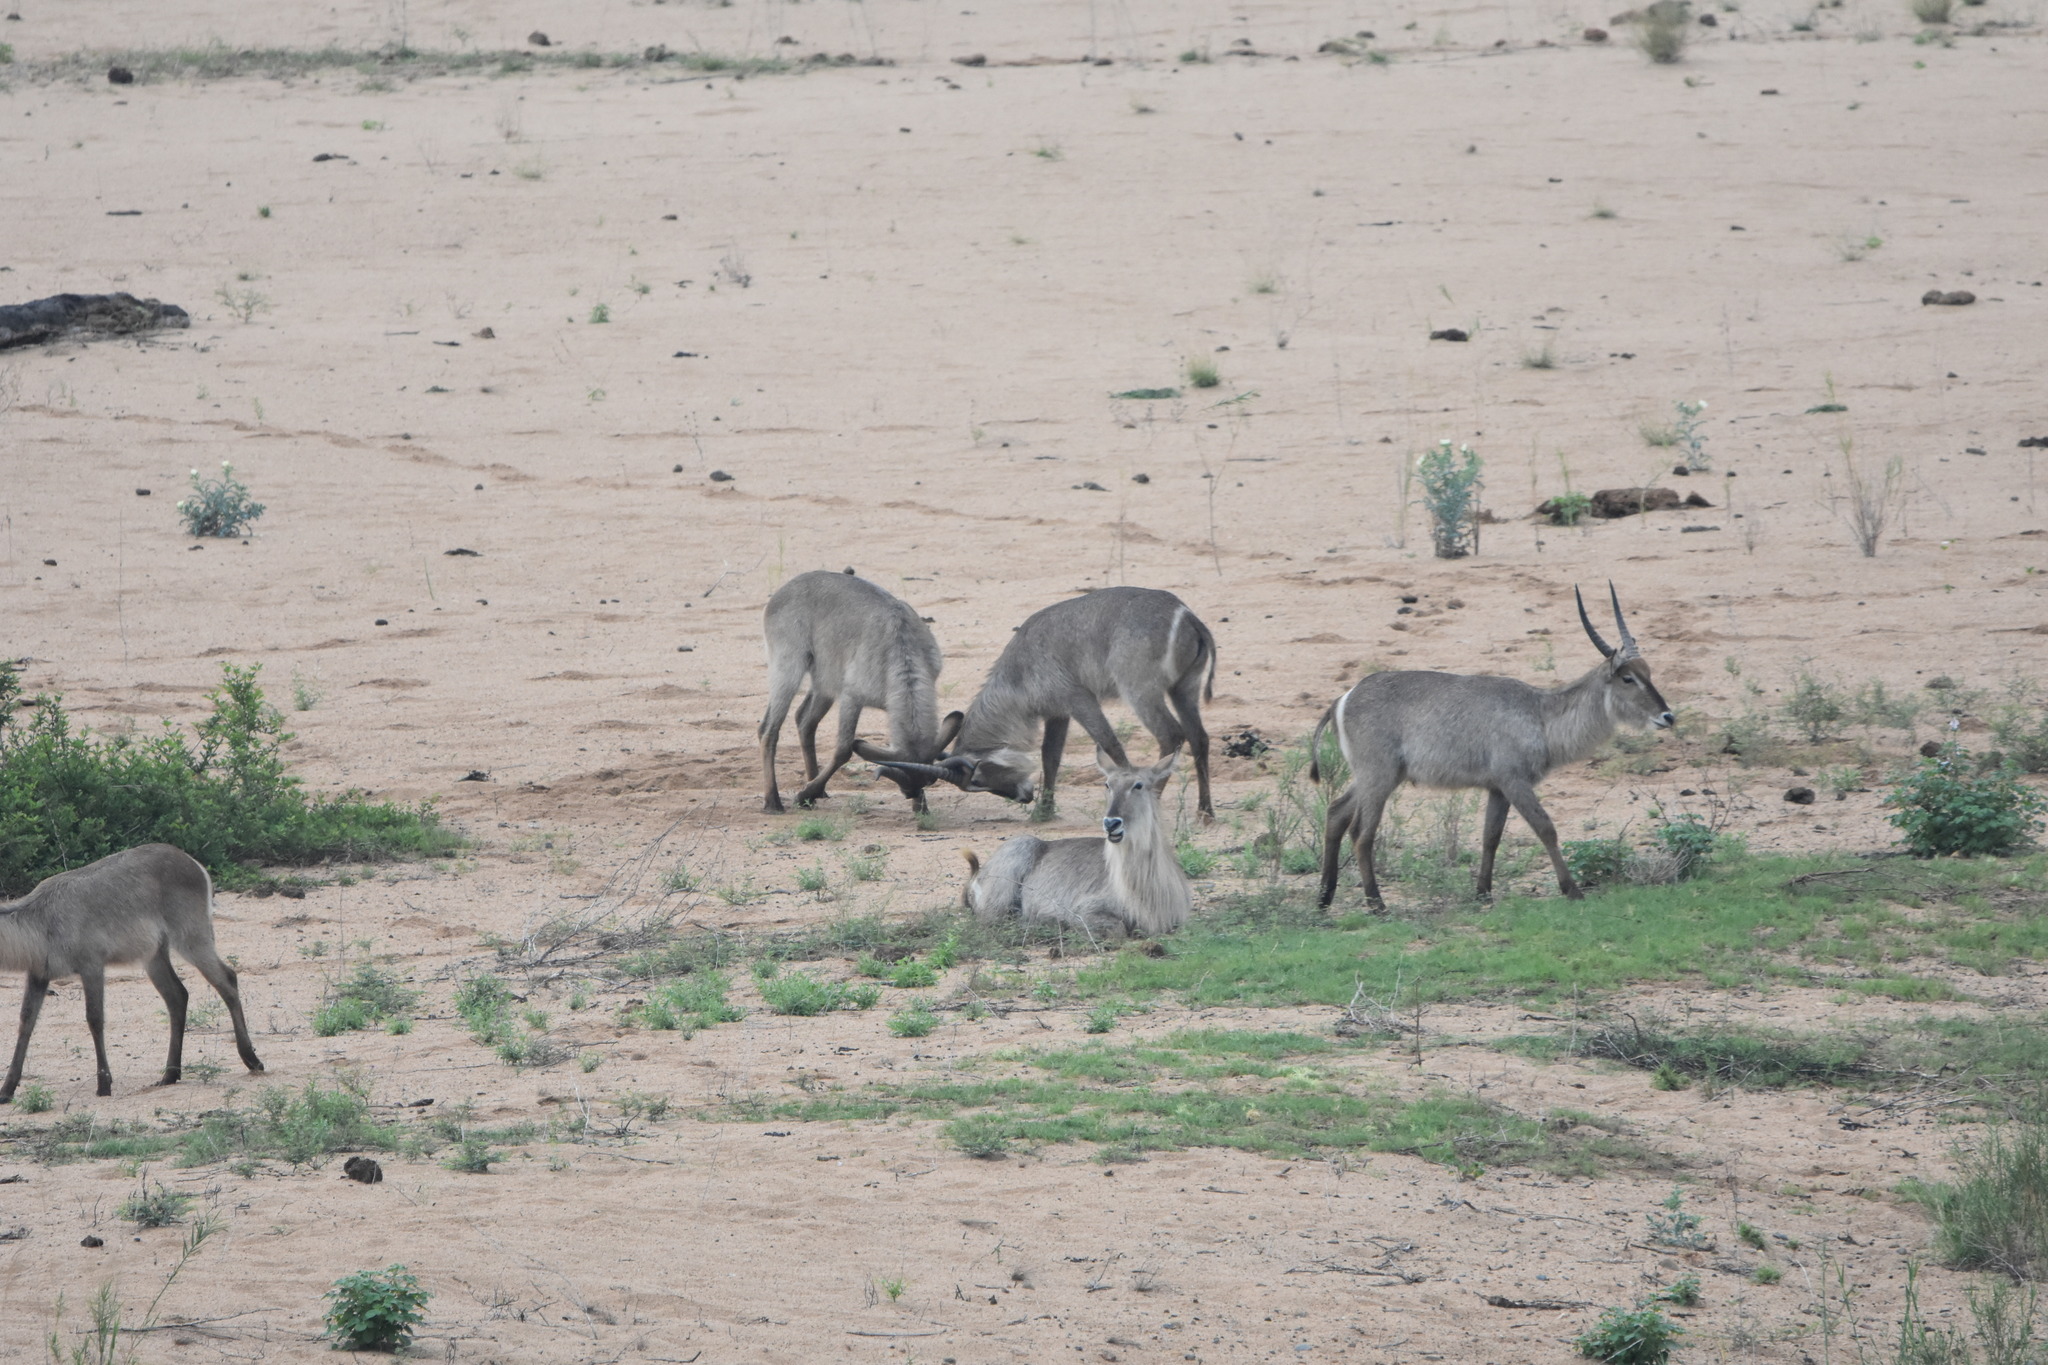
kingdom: Animalia
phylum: Chordata
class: Mammalia
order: Artiodactyla
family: Bovidae
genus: Kobus
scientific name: Kobus ellipsiprymnus
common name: Waterbuck
